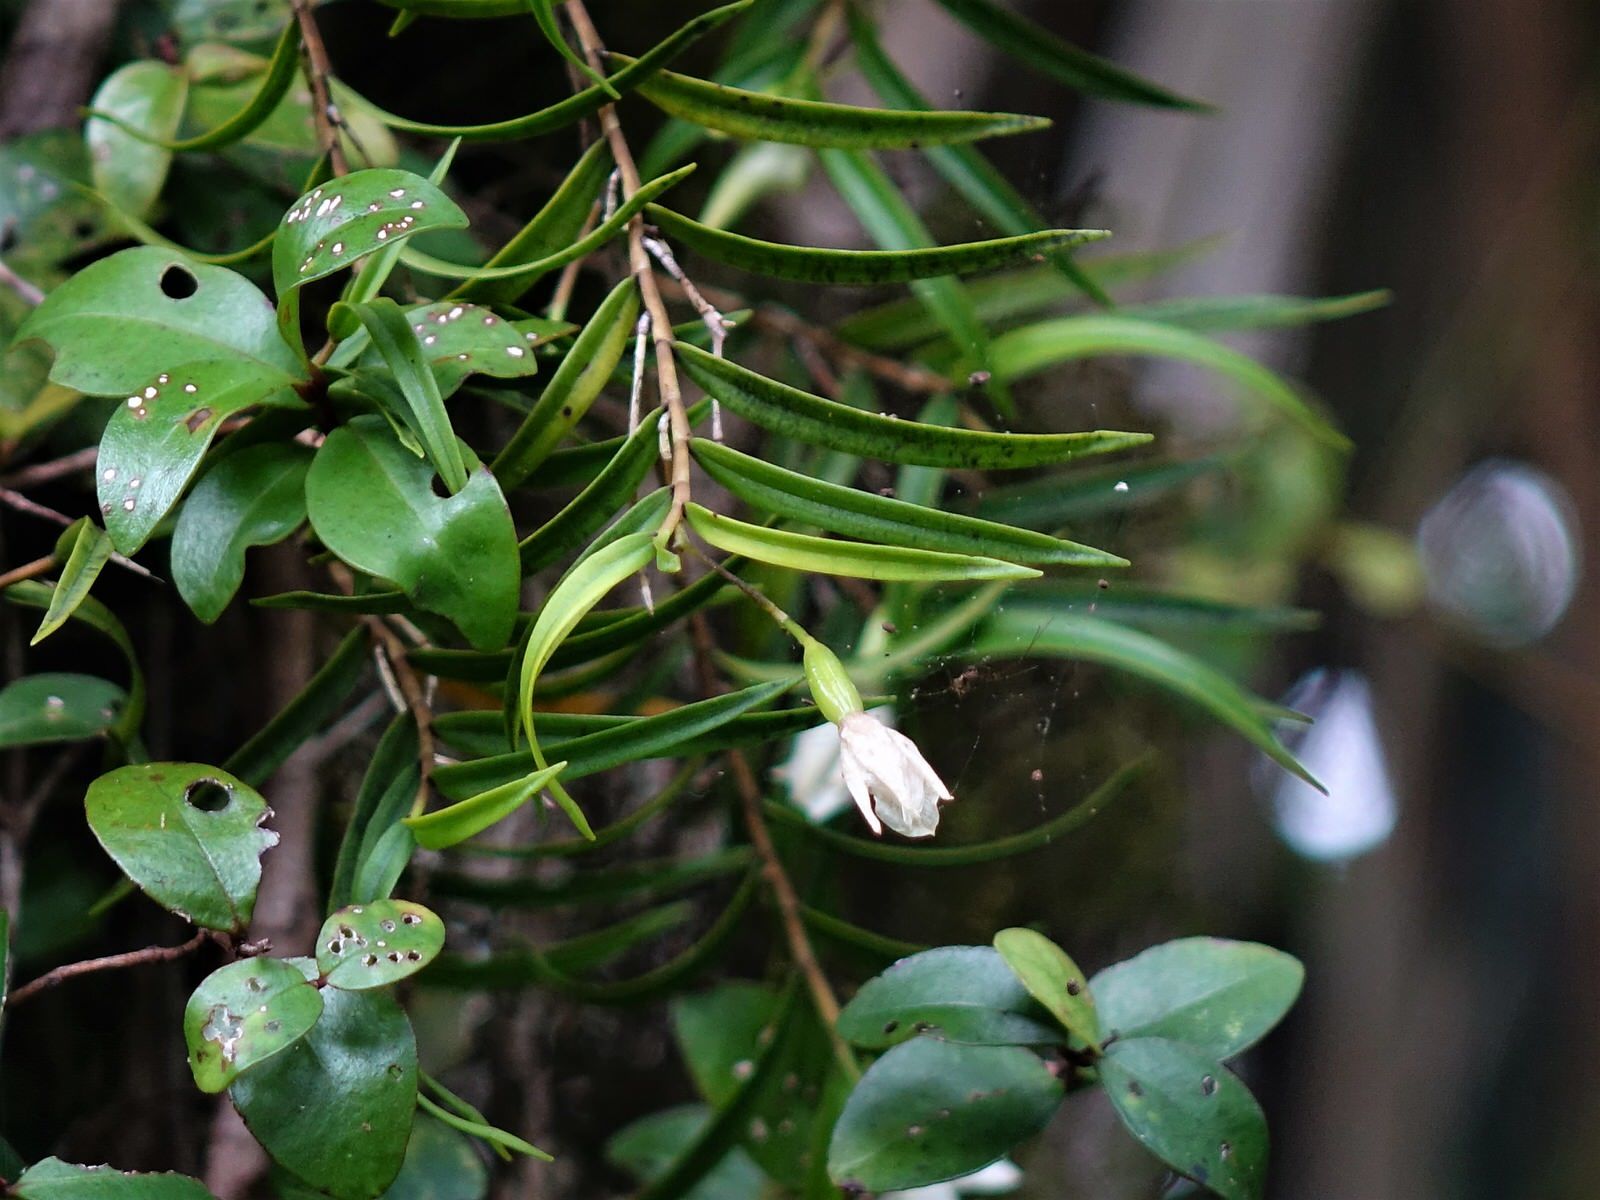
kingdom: Plantae
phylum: Tracheophyta
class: Liliopsida
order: Asparagales
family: Orchidaceae
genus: Dendrobium
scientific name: Dendrobium cunninghamii
